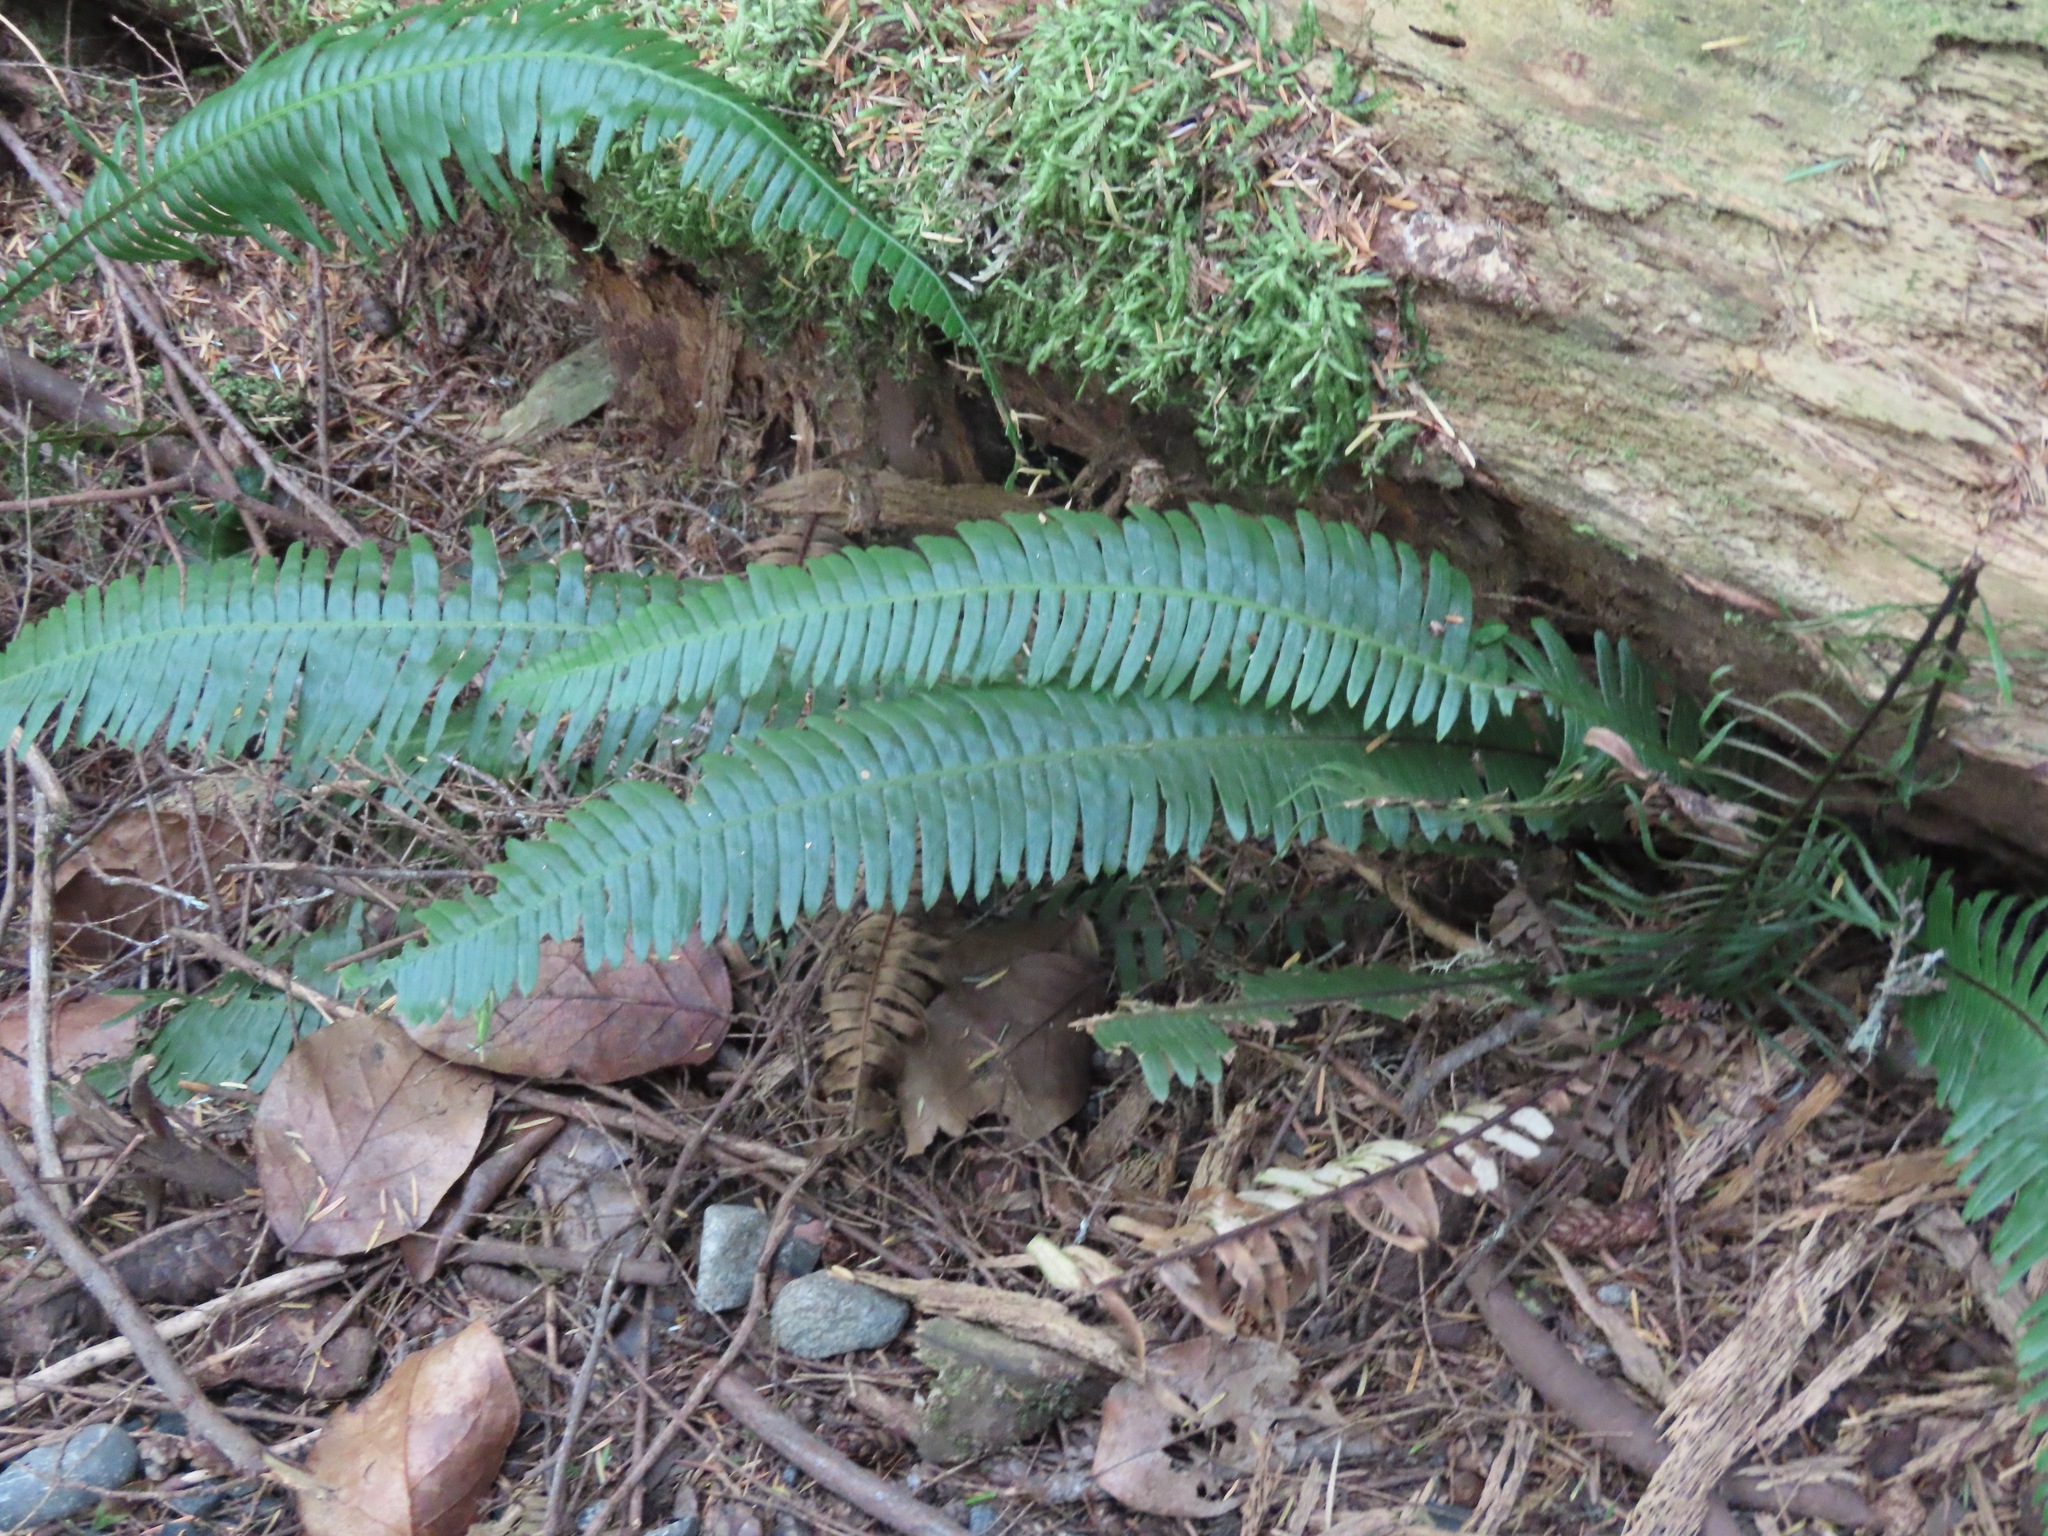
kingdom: Plantae
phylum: Tracheophyta
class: Polypodiopsida
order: Polypodiales
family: Blechnaceae
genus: Struthiopteris
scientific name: Struthiopteris spicant
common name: Deer fern
